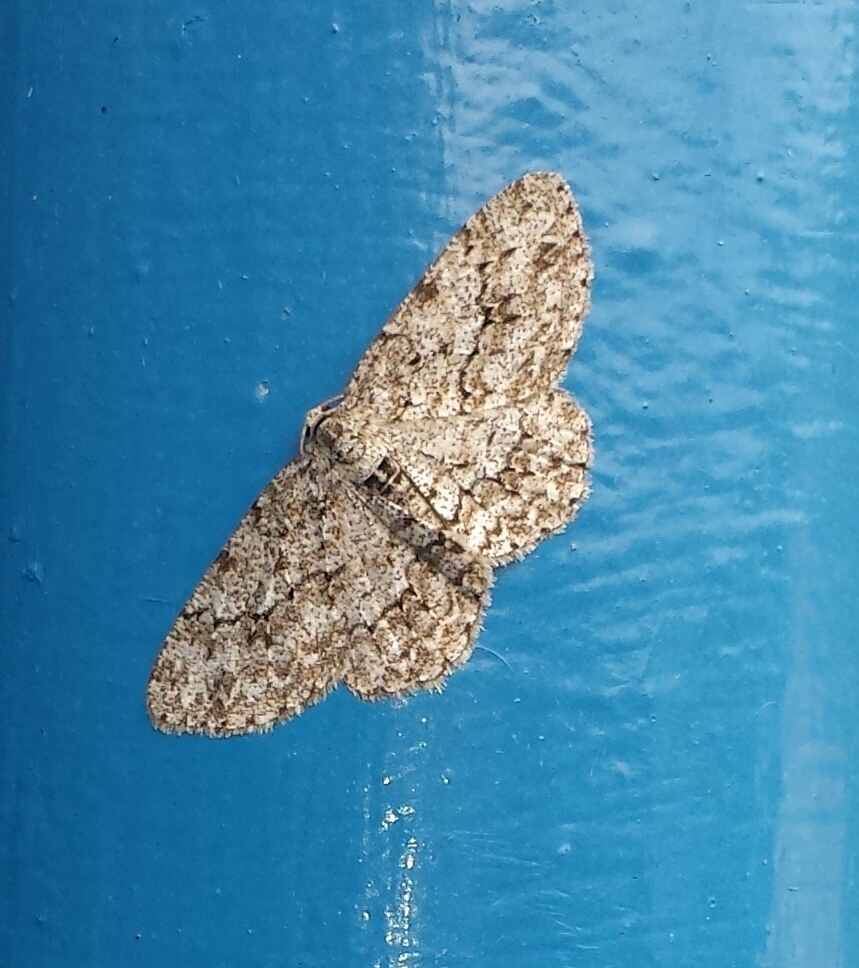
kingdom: Animalia
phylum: Arthropoda
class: Insecta
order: Lepidoptera
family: Geometridae
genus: Ectropis
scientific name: Ectropis crepuscularia
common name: Engrailed
